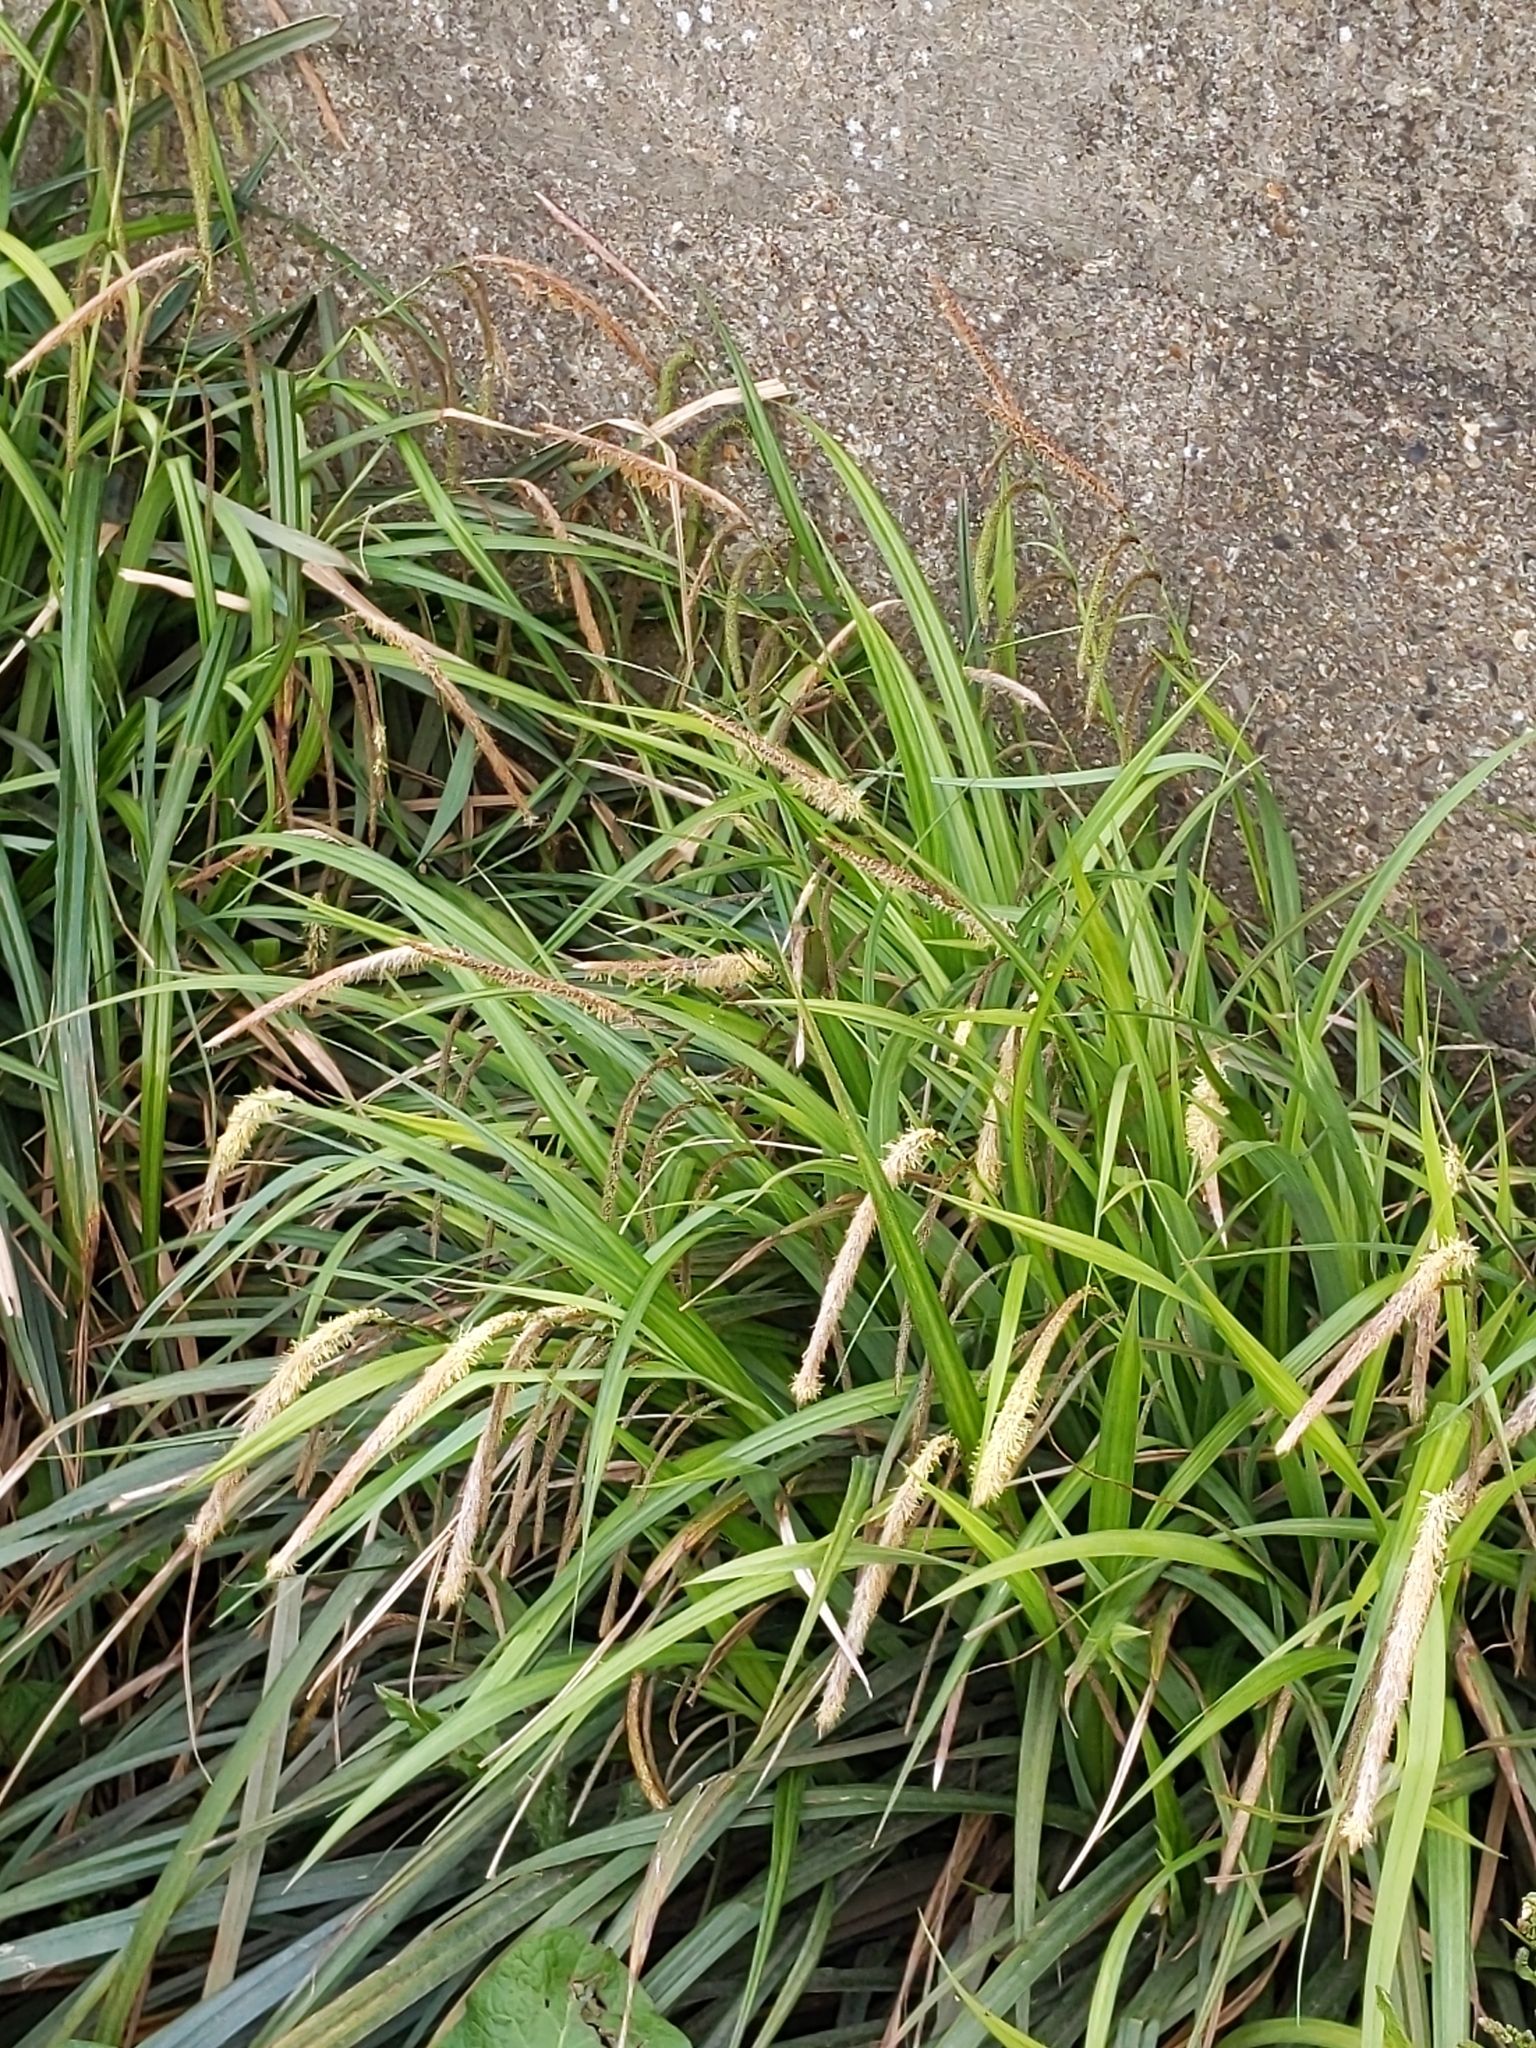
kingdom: Plantae
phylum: Tracheophyta
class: Liliopsida
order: Poales
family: Cyperaceae
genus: Carex
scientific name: Carex pendula
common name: Pendulous sedge
